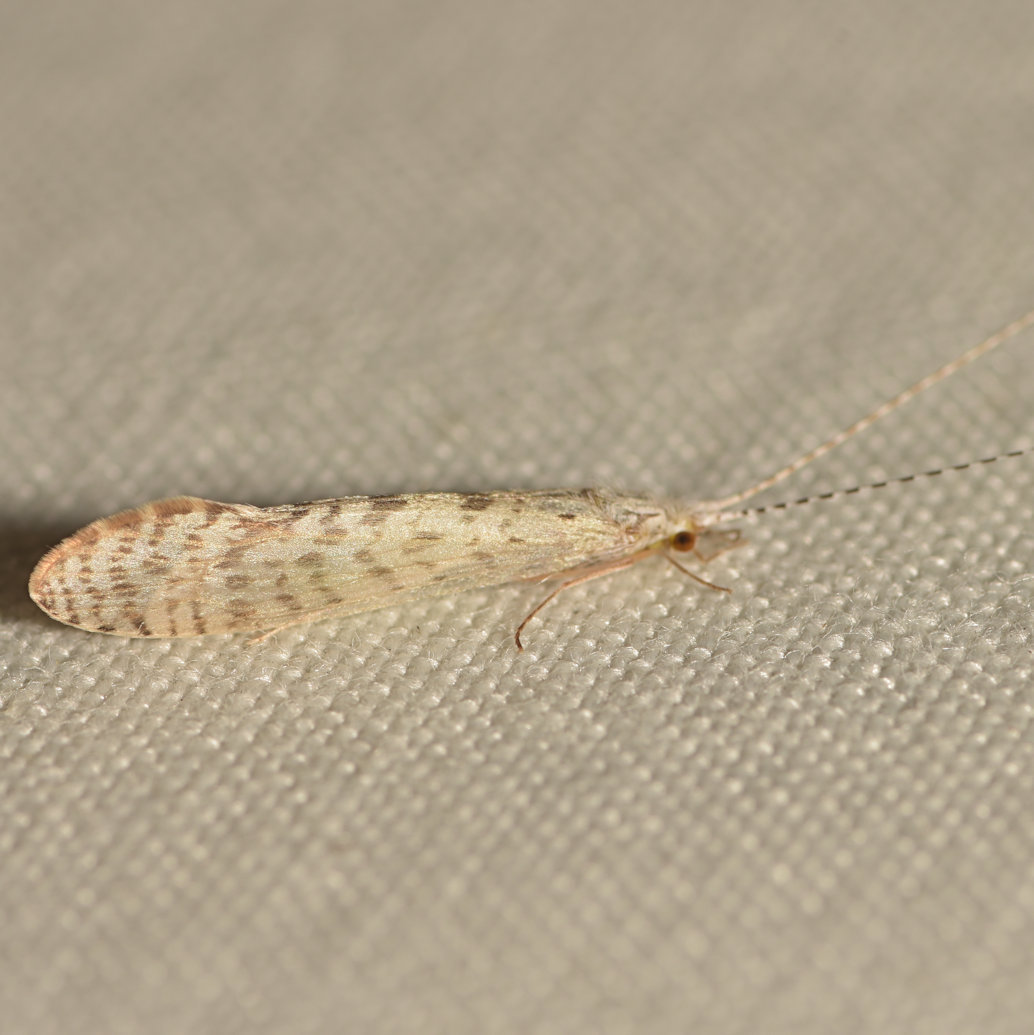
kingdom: Animalia
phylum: Arthropoda
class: Insecta
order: Trichoptera
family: Leptoceridae
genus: Nectopsyche
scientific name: Nectopsyche diarina
